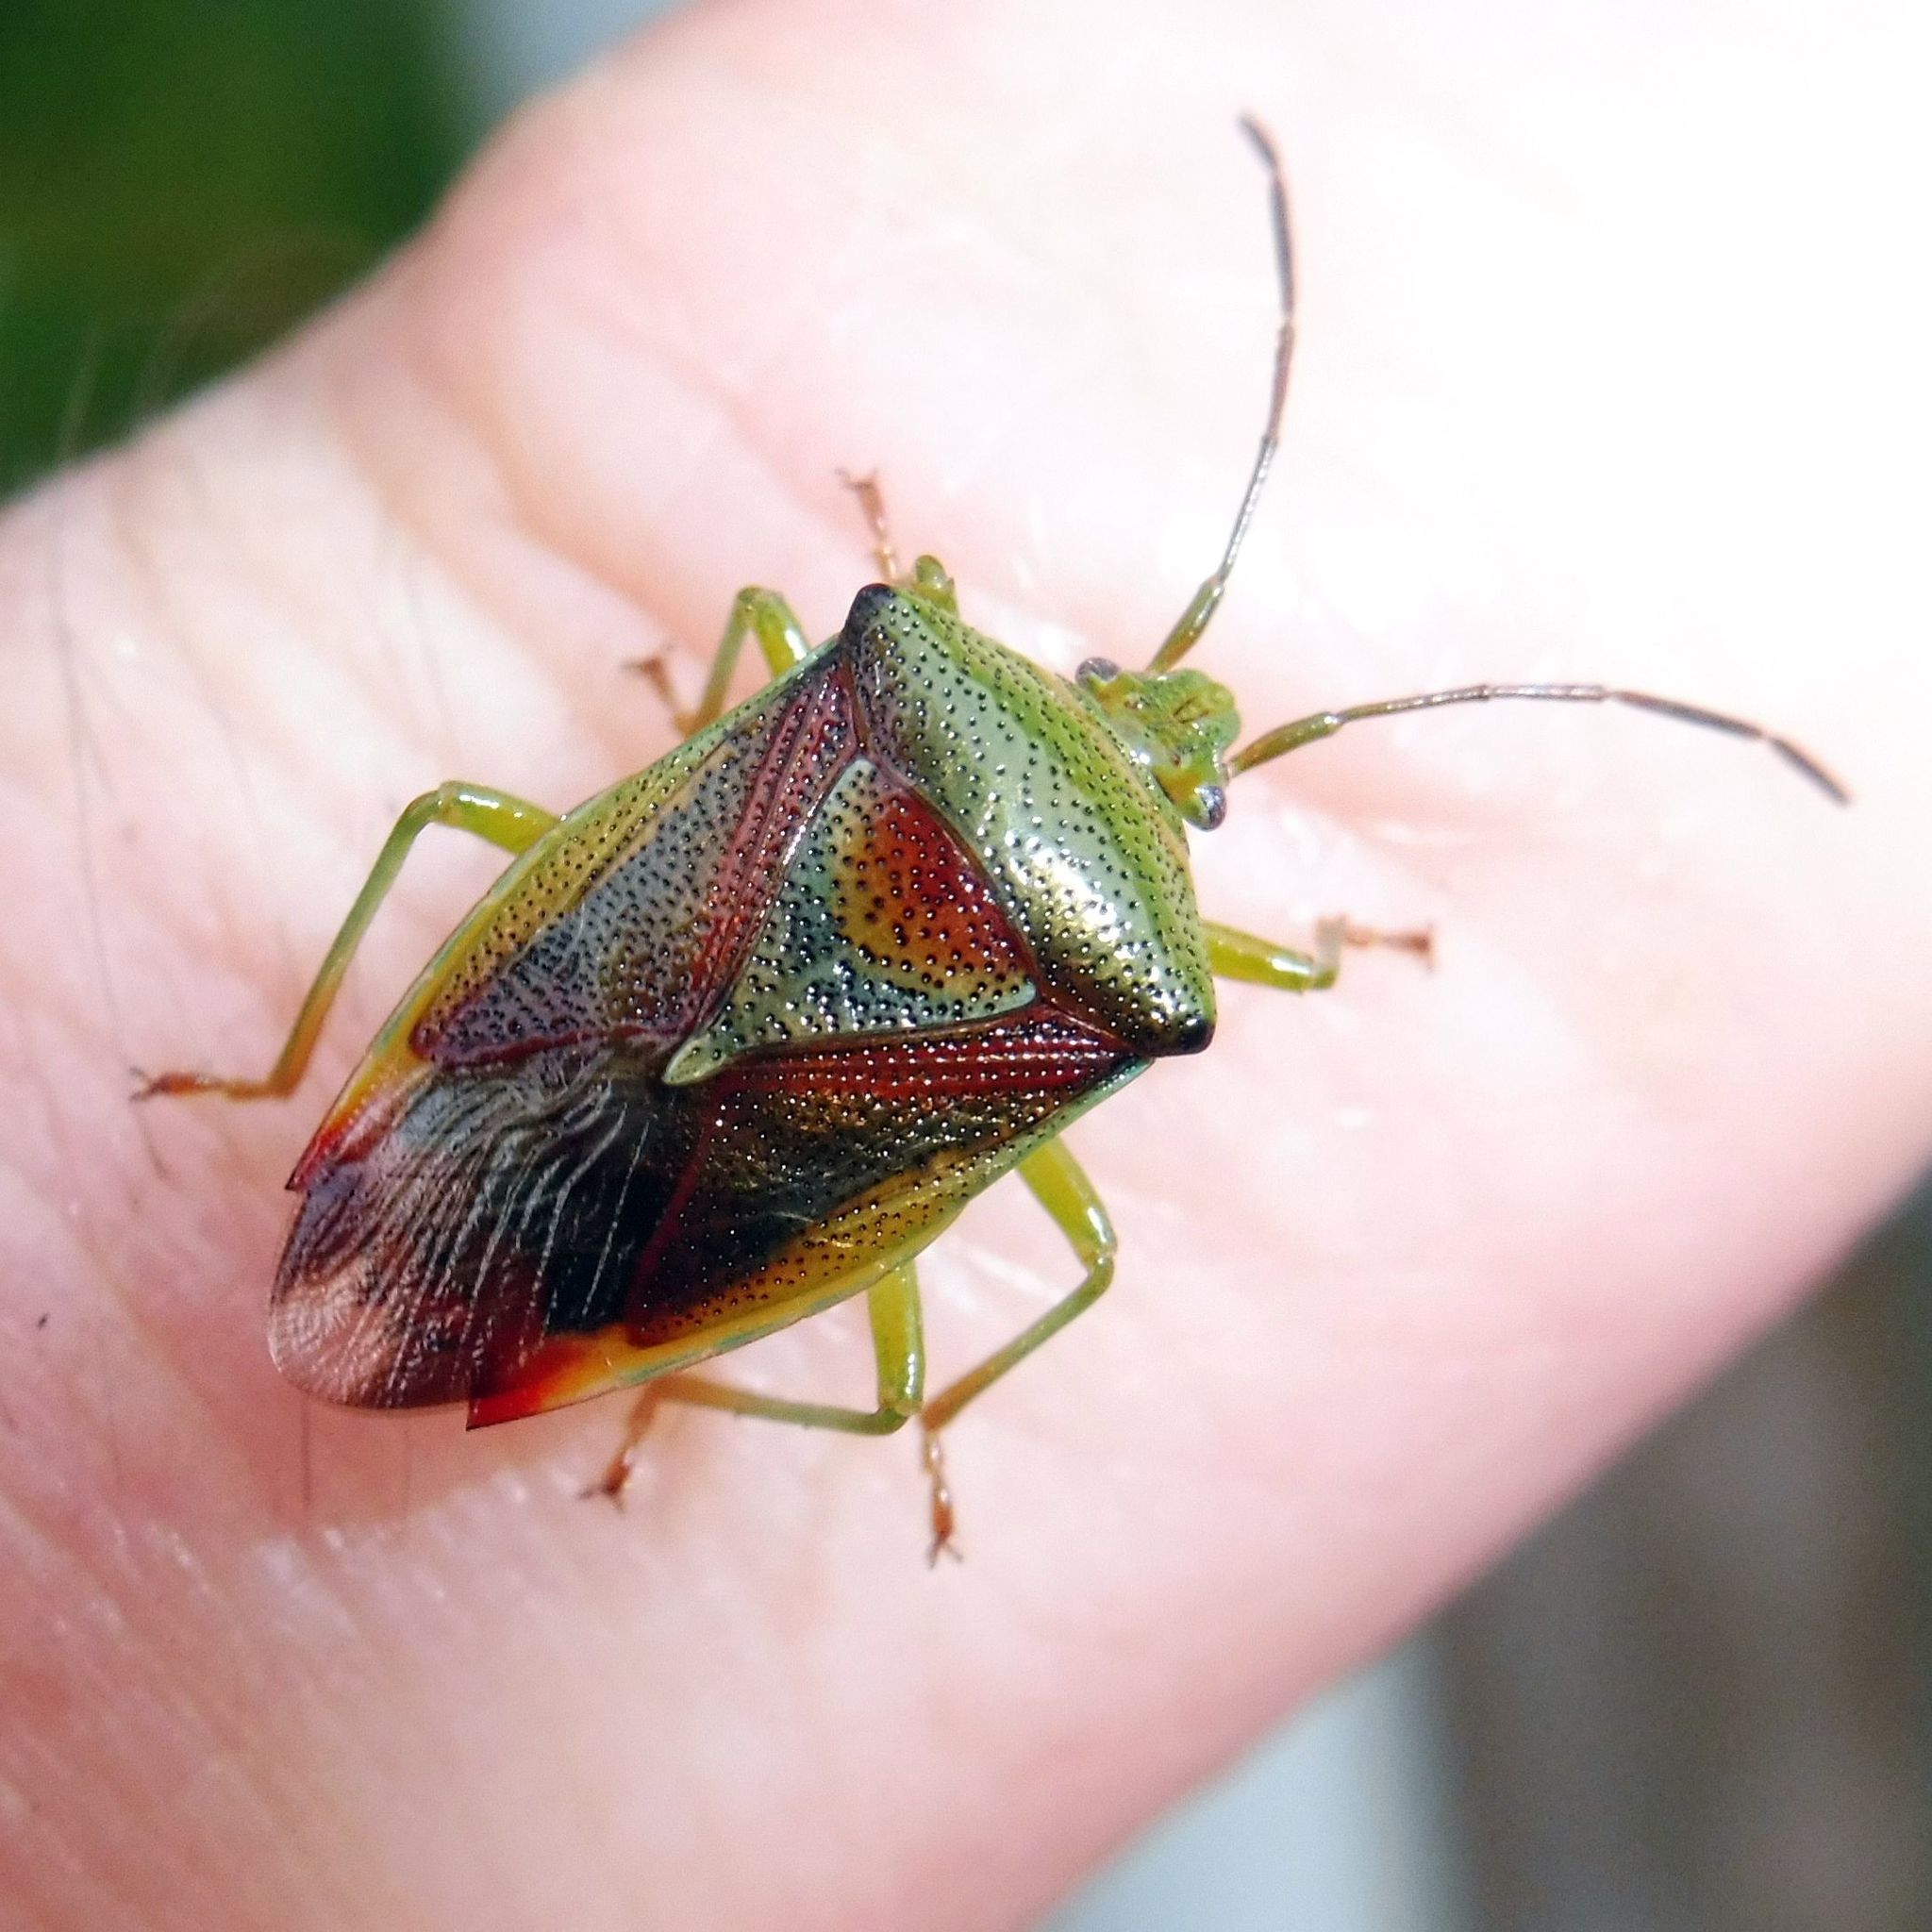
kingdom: Animalia
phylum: Arthropoda
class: Insecta
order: Hemiptera
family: Acanthosomatidae
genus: Elasmostethus
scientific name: Elasmostethus interstinctus
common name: Birch shieldbug
